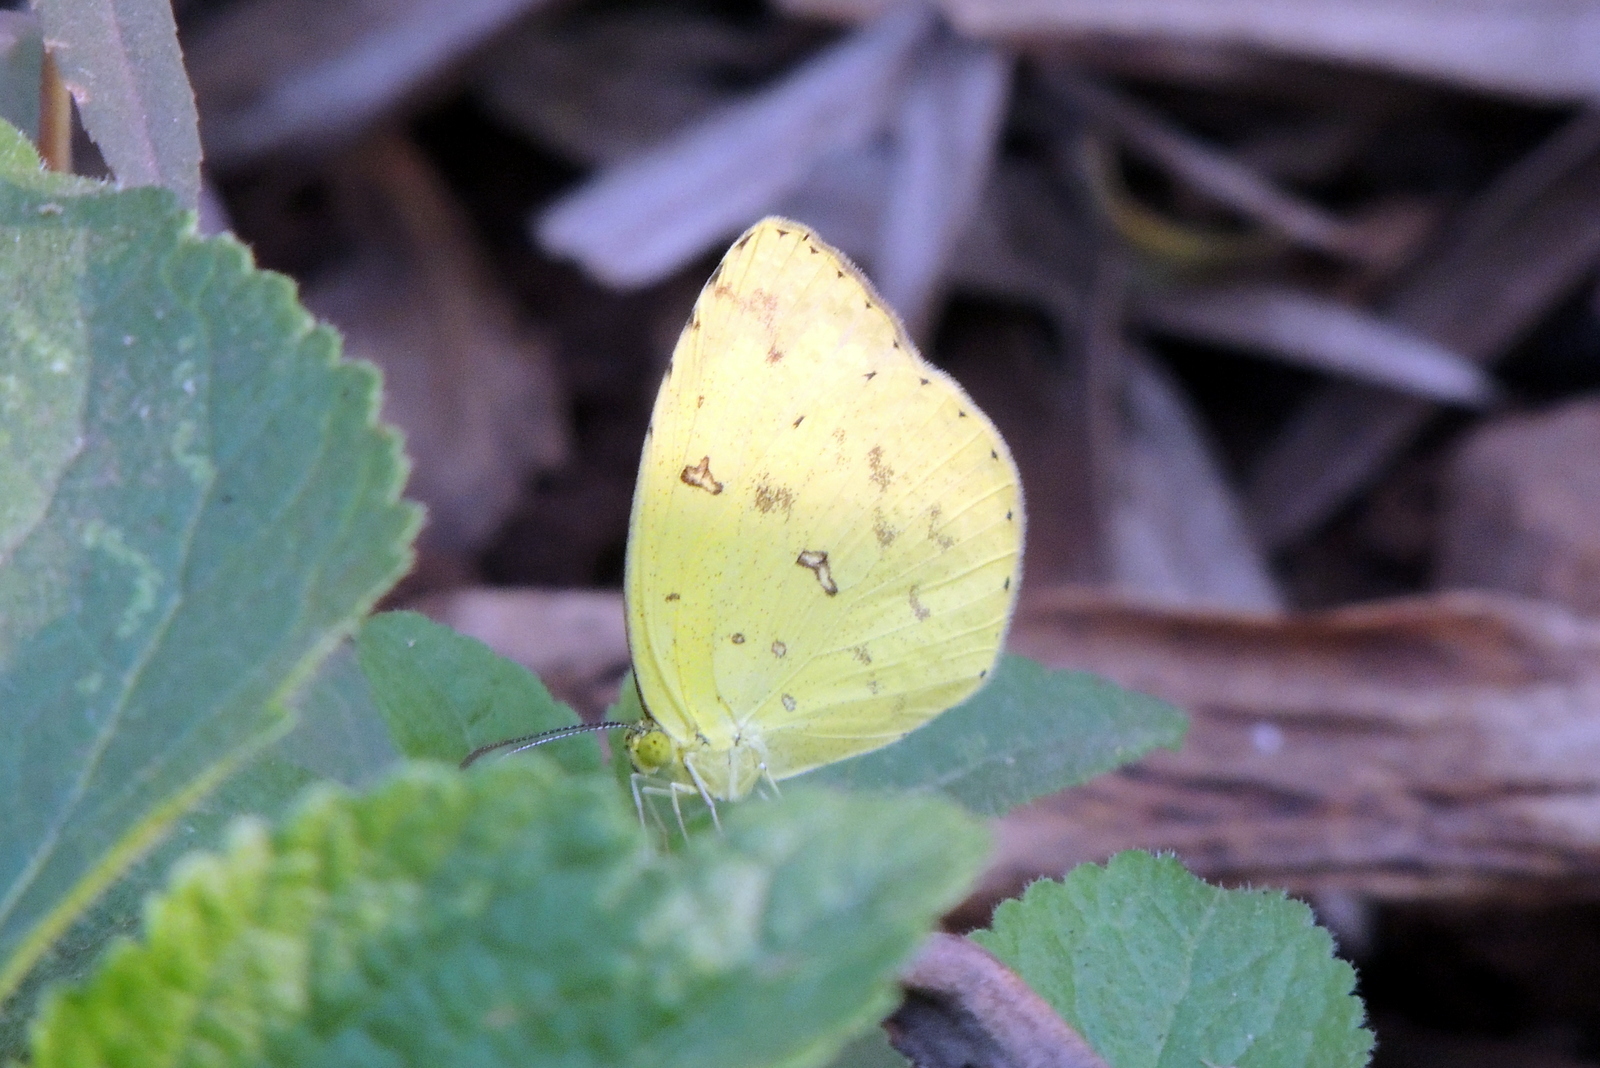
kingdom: Animalia
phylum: Arthropoda
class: Insecta
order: Lepidoptera
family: Pieridae
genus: Eurema
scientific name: Eurema hecabe
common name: Pale grass yellow
